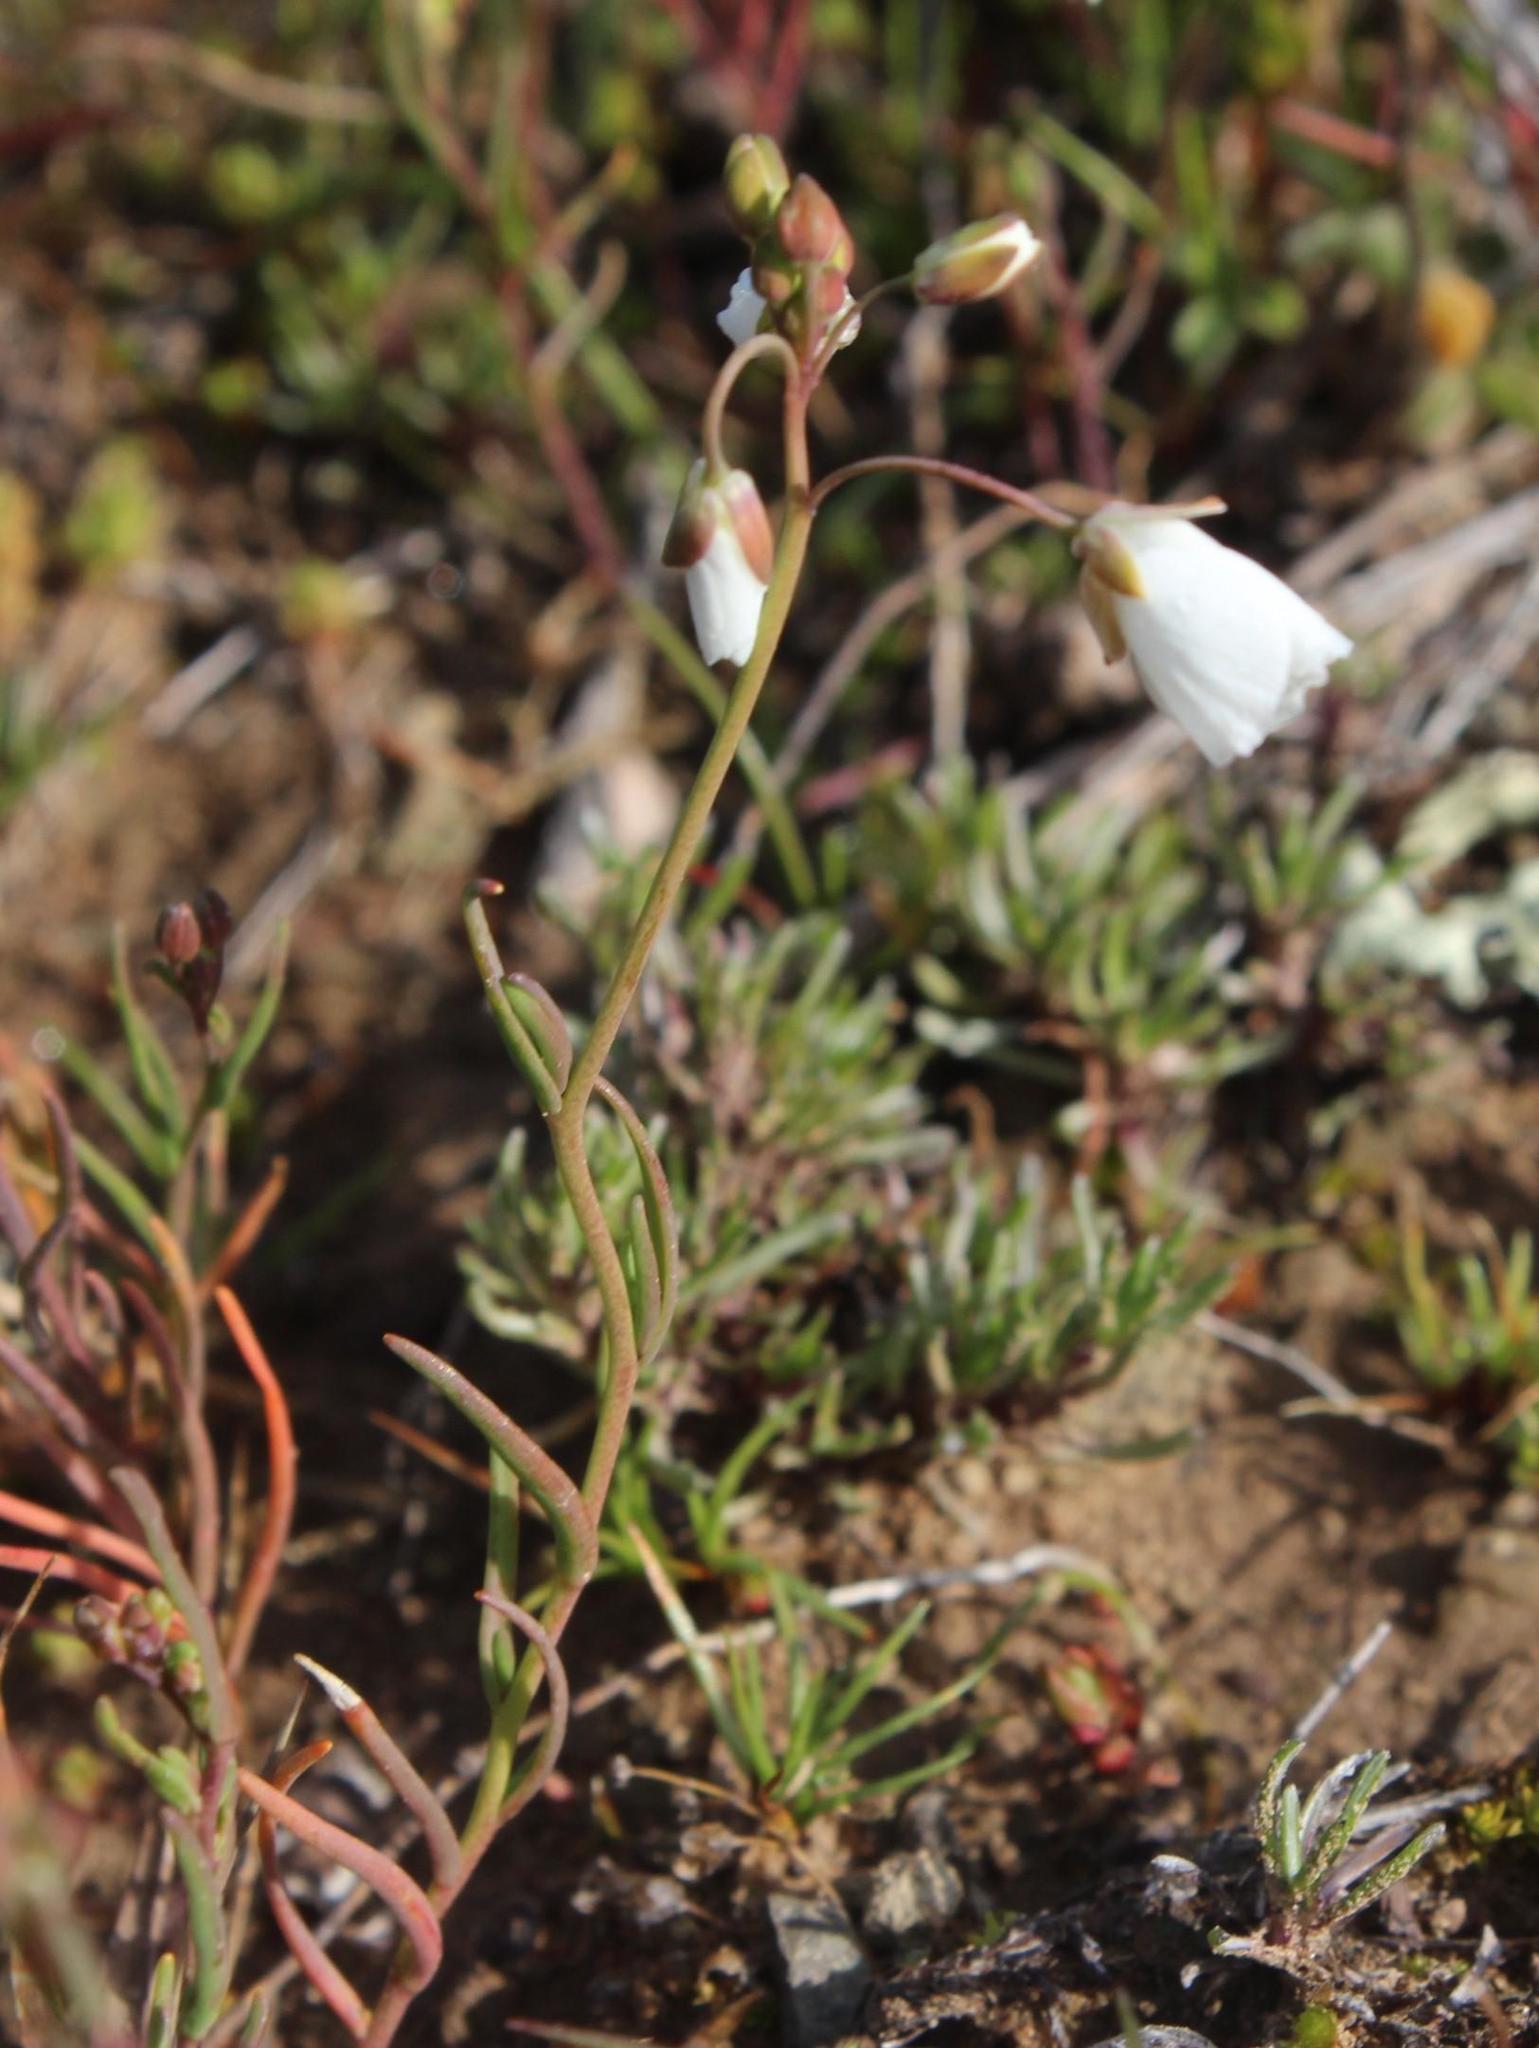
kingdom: Plantae
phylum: Tracheophyta
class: Magnoliopsida
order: Brassicales
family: Brassicaceae
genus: Heliophila
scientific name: Heliophila clarkii
